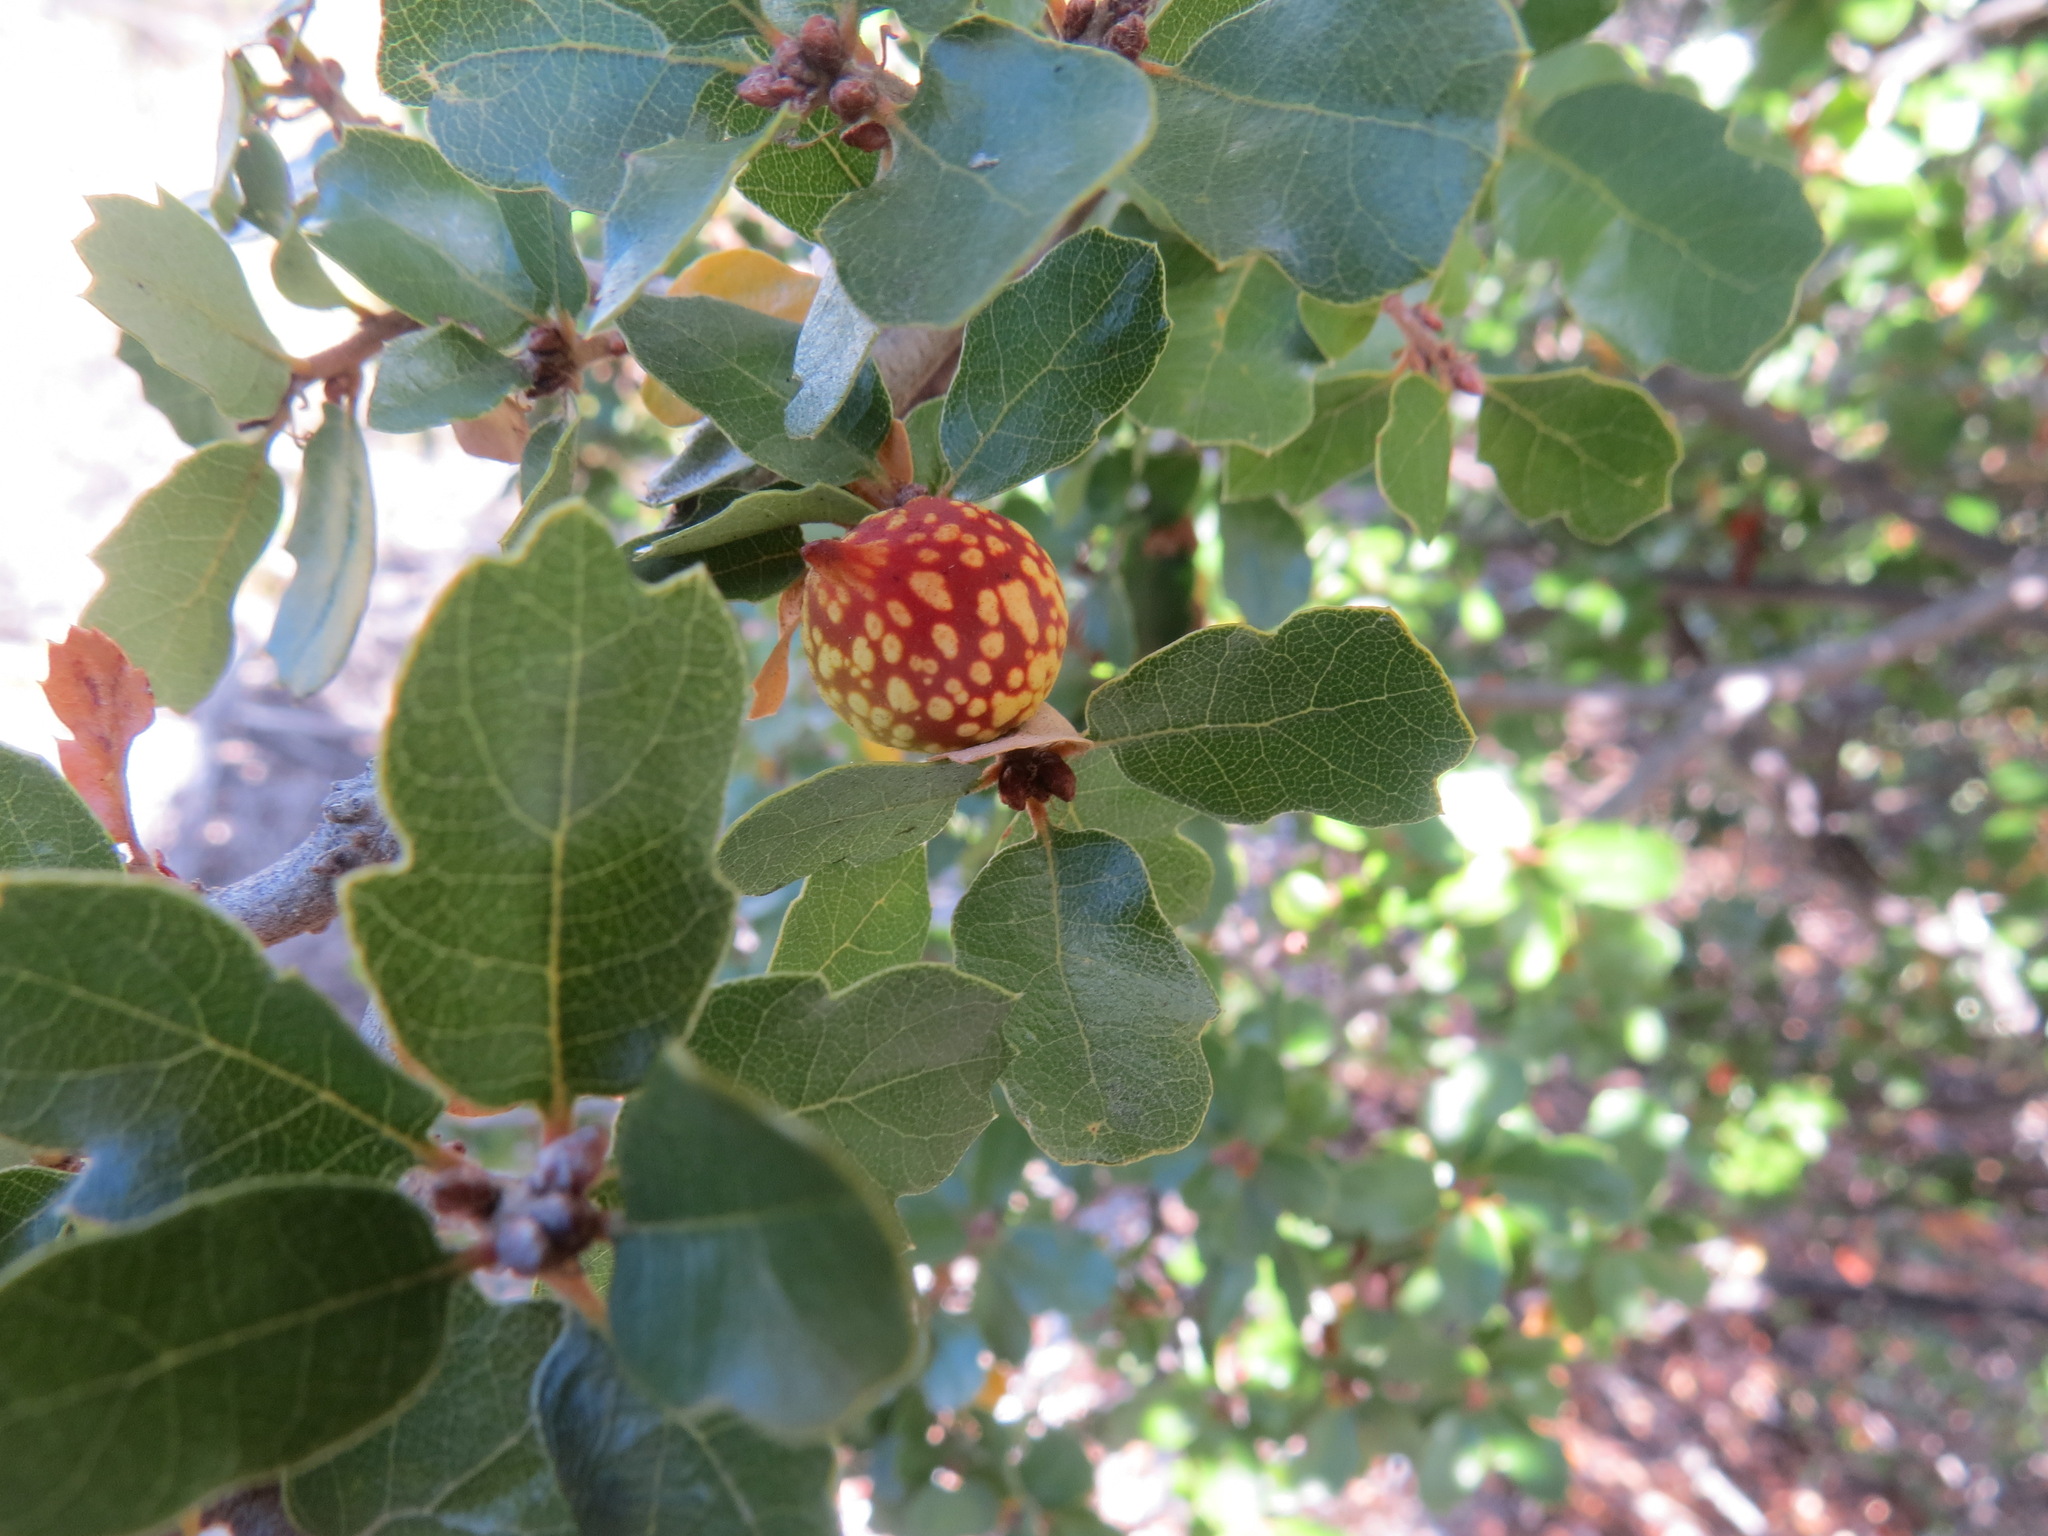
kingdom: Animalia
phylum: Arthropoda
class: Insecta
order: Hymenoptera
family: Cynipidae
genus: Burnettweldia
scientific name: Burnettweldia
